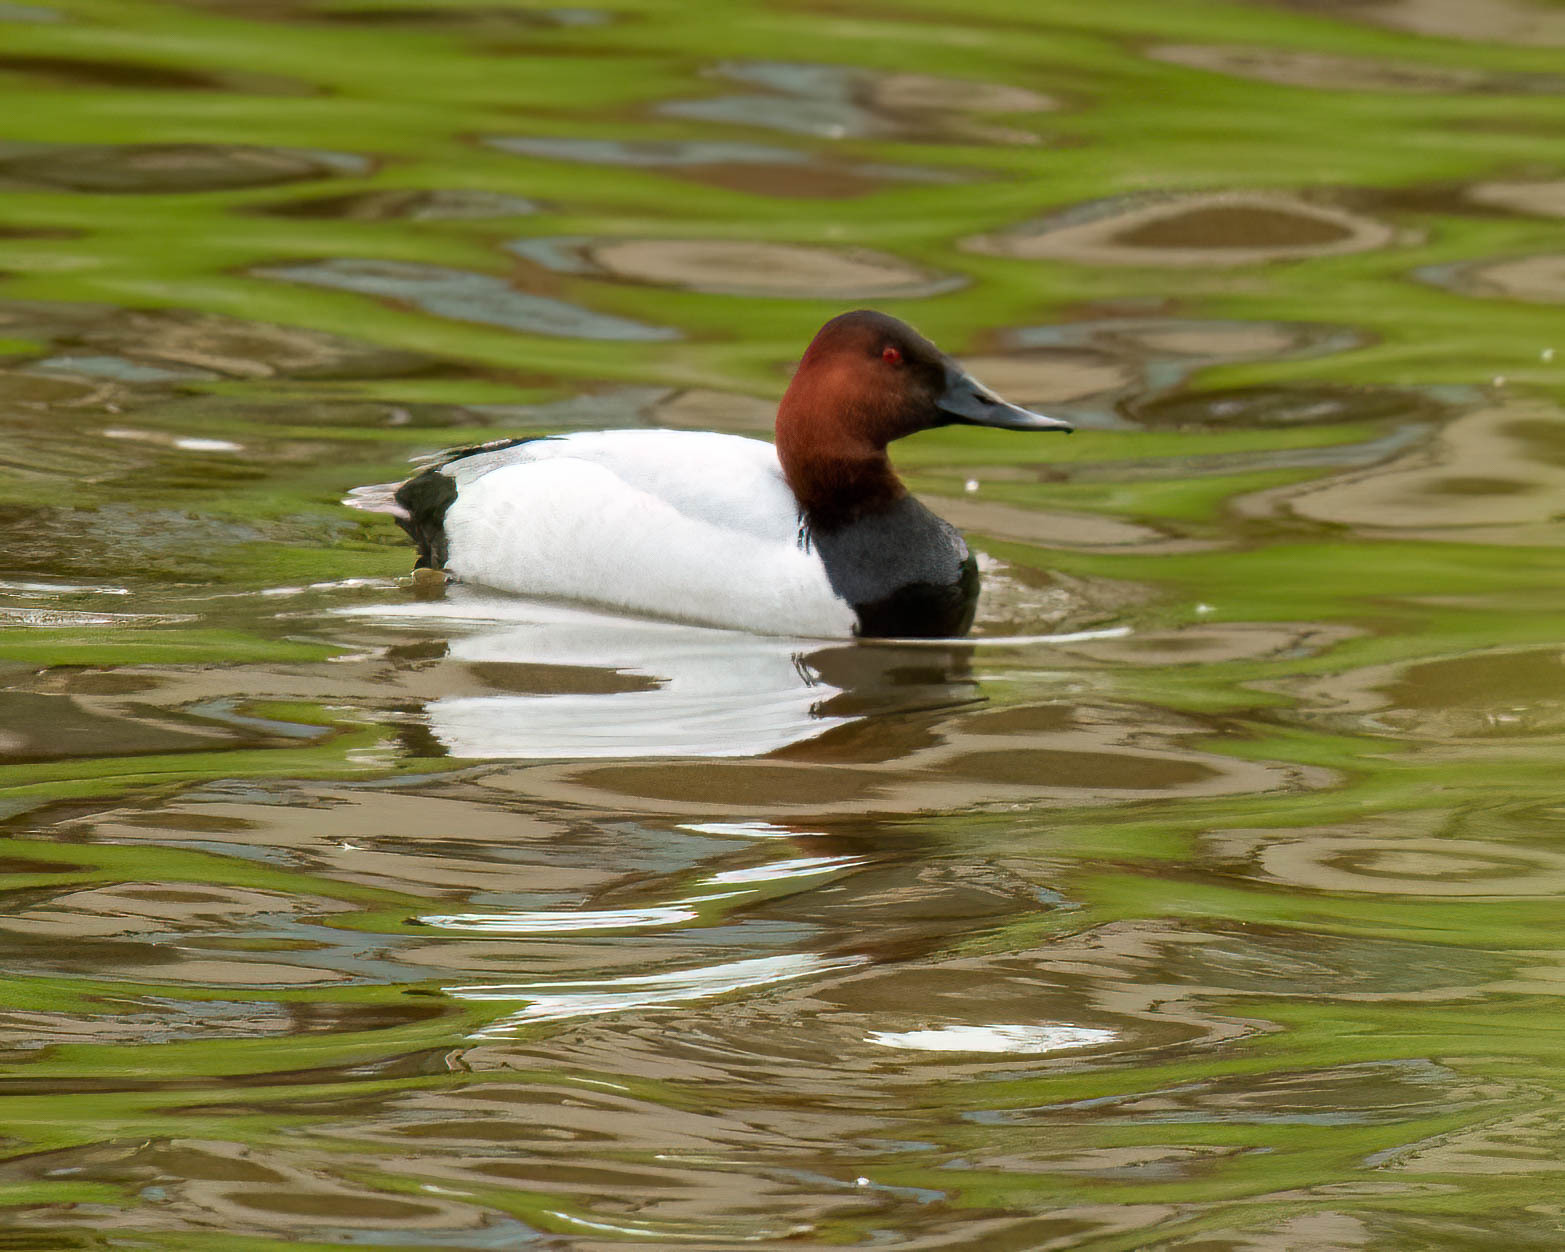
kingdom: Animalia
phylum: Chordata
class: Aves
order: Anseriformes
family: Anatidae
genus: Aythya
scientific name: Aythya valisineria
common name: Canvasback
